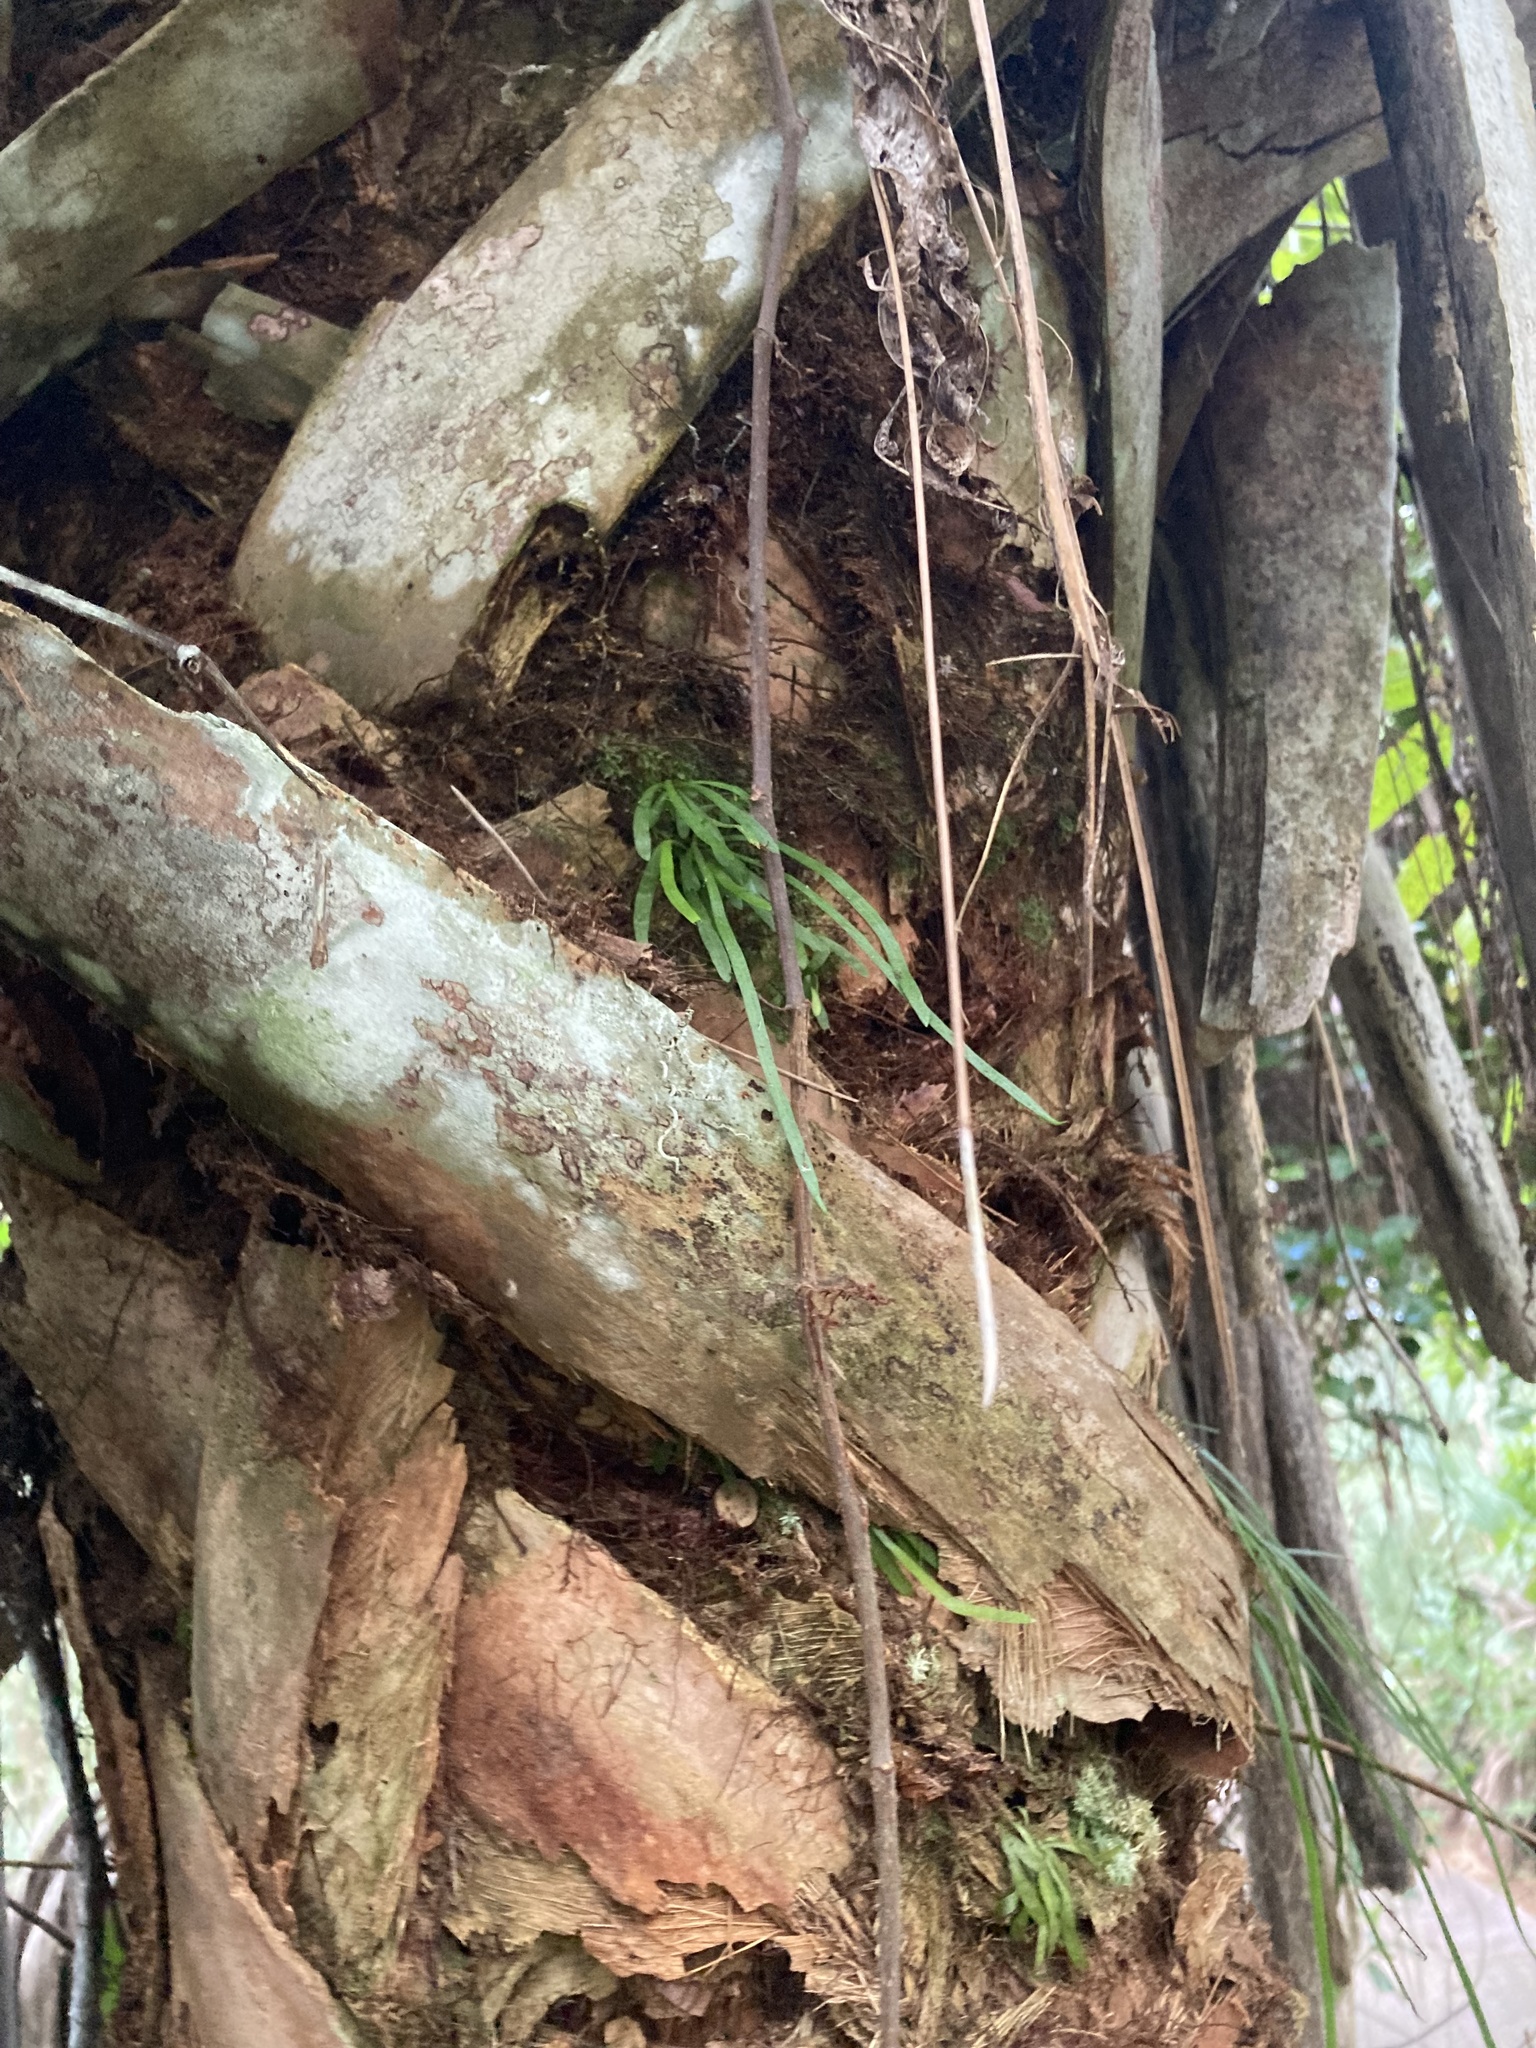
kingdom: Plantae
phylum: Tracheophyta
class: Polypodiopsida
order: Polypodiales
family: Pteridaceae
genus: Vittaria
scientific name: Vittaria lineata
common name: Shoestring fern
